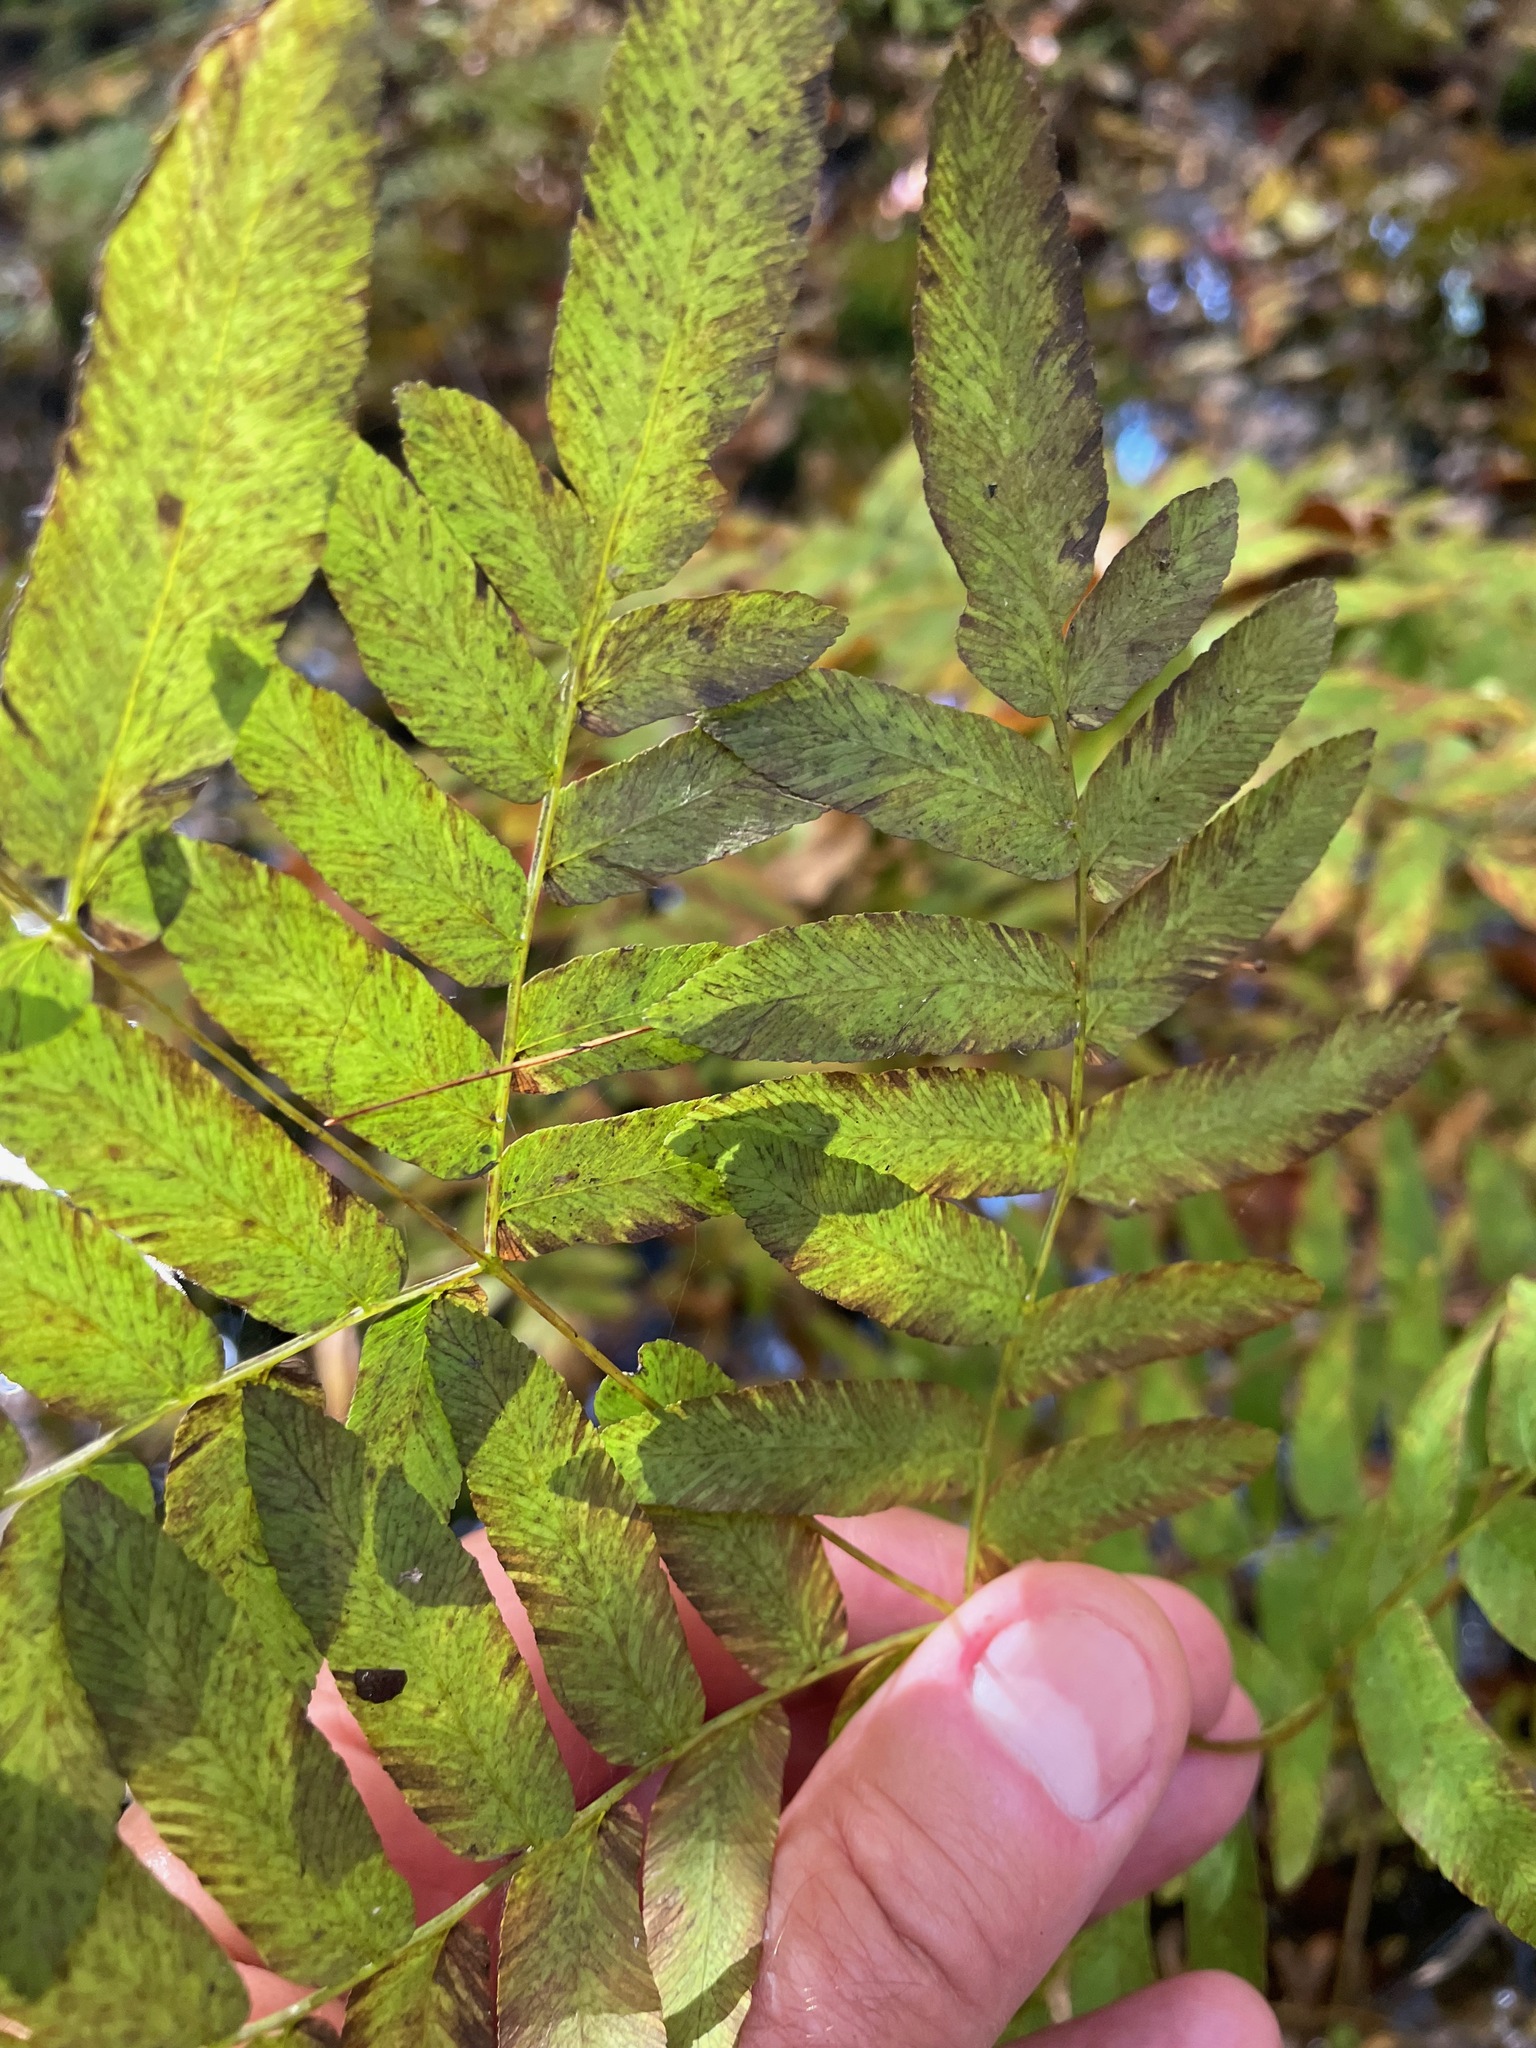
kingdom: Plantae
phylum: Tracheophyta
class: Polypodiopsida
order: Osmundales
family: Osmundaceae
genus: Osmunda
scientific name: Osmunda spectabilis
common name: American royal fern
